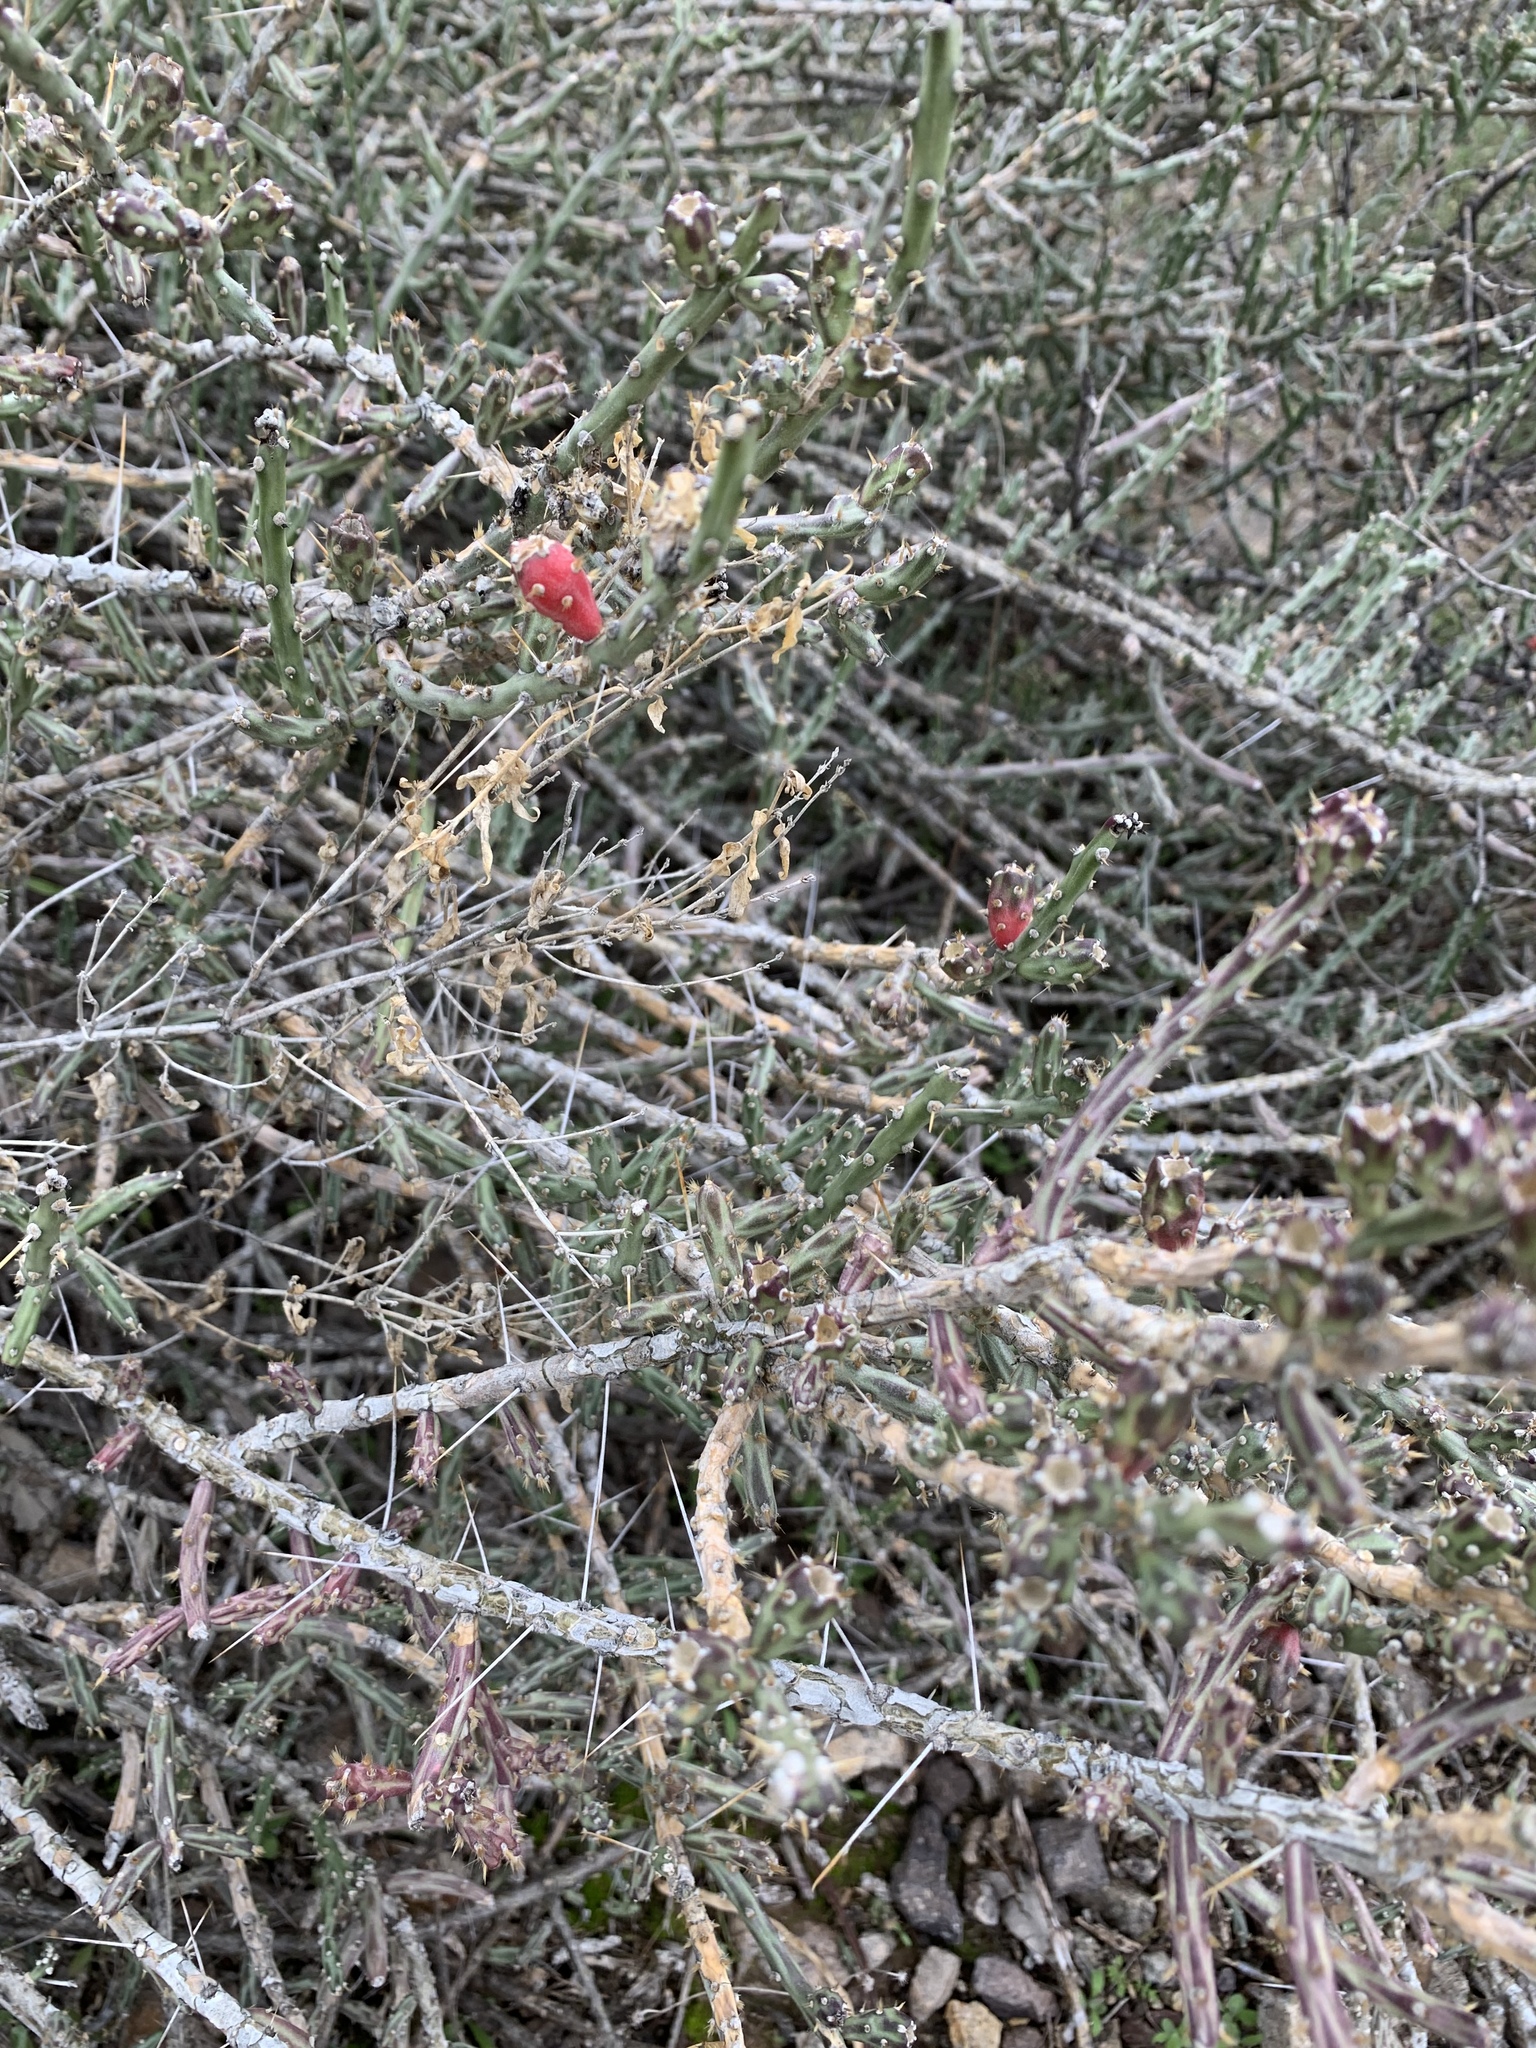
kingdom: Plantae
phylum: Tracheophyta
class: Magnoliopsida
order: Caryophyllales
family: Cactaceae
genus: Cylindropuntia
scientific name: Cylindropuntia leptocaulis
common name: Christmas cactus
